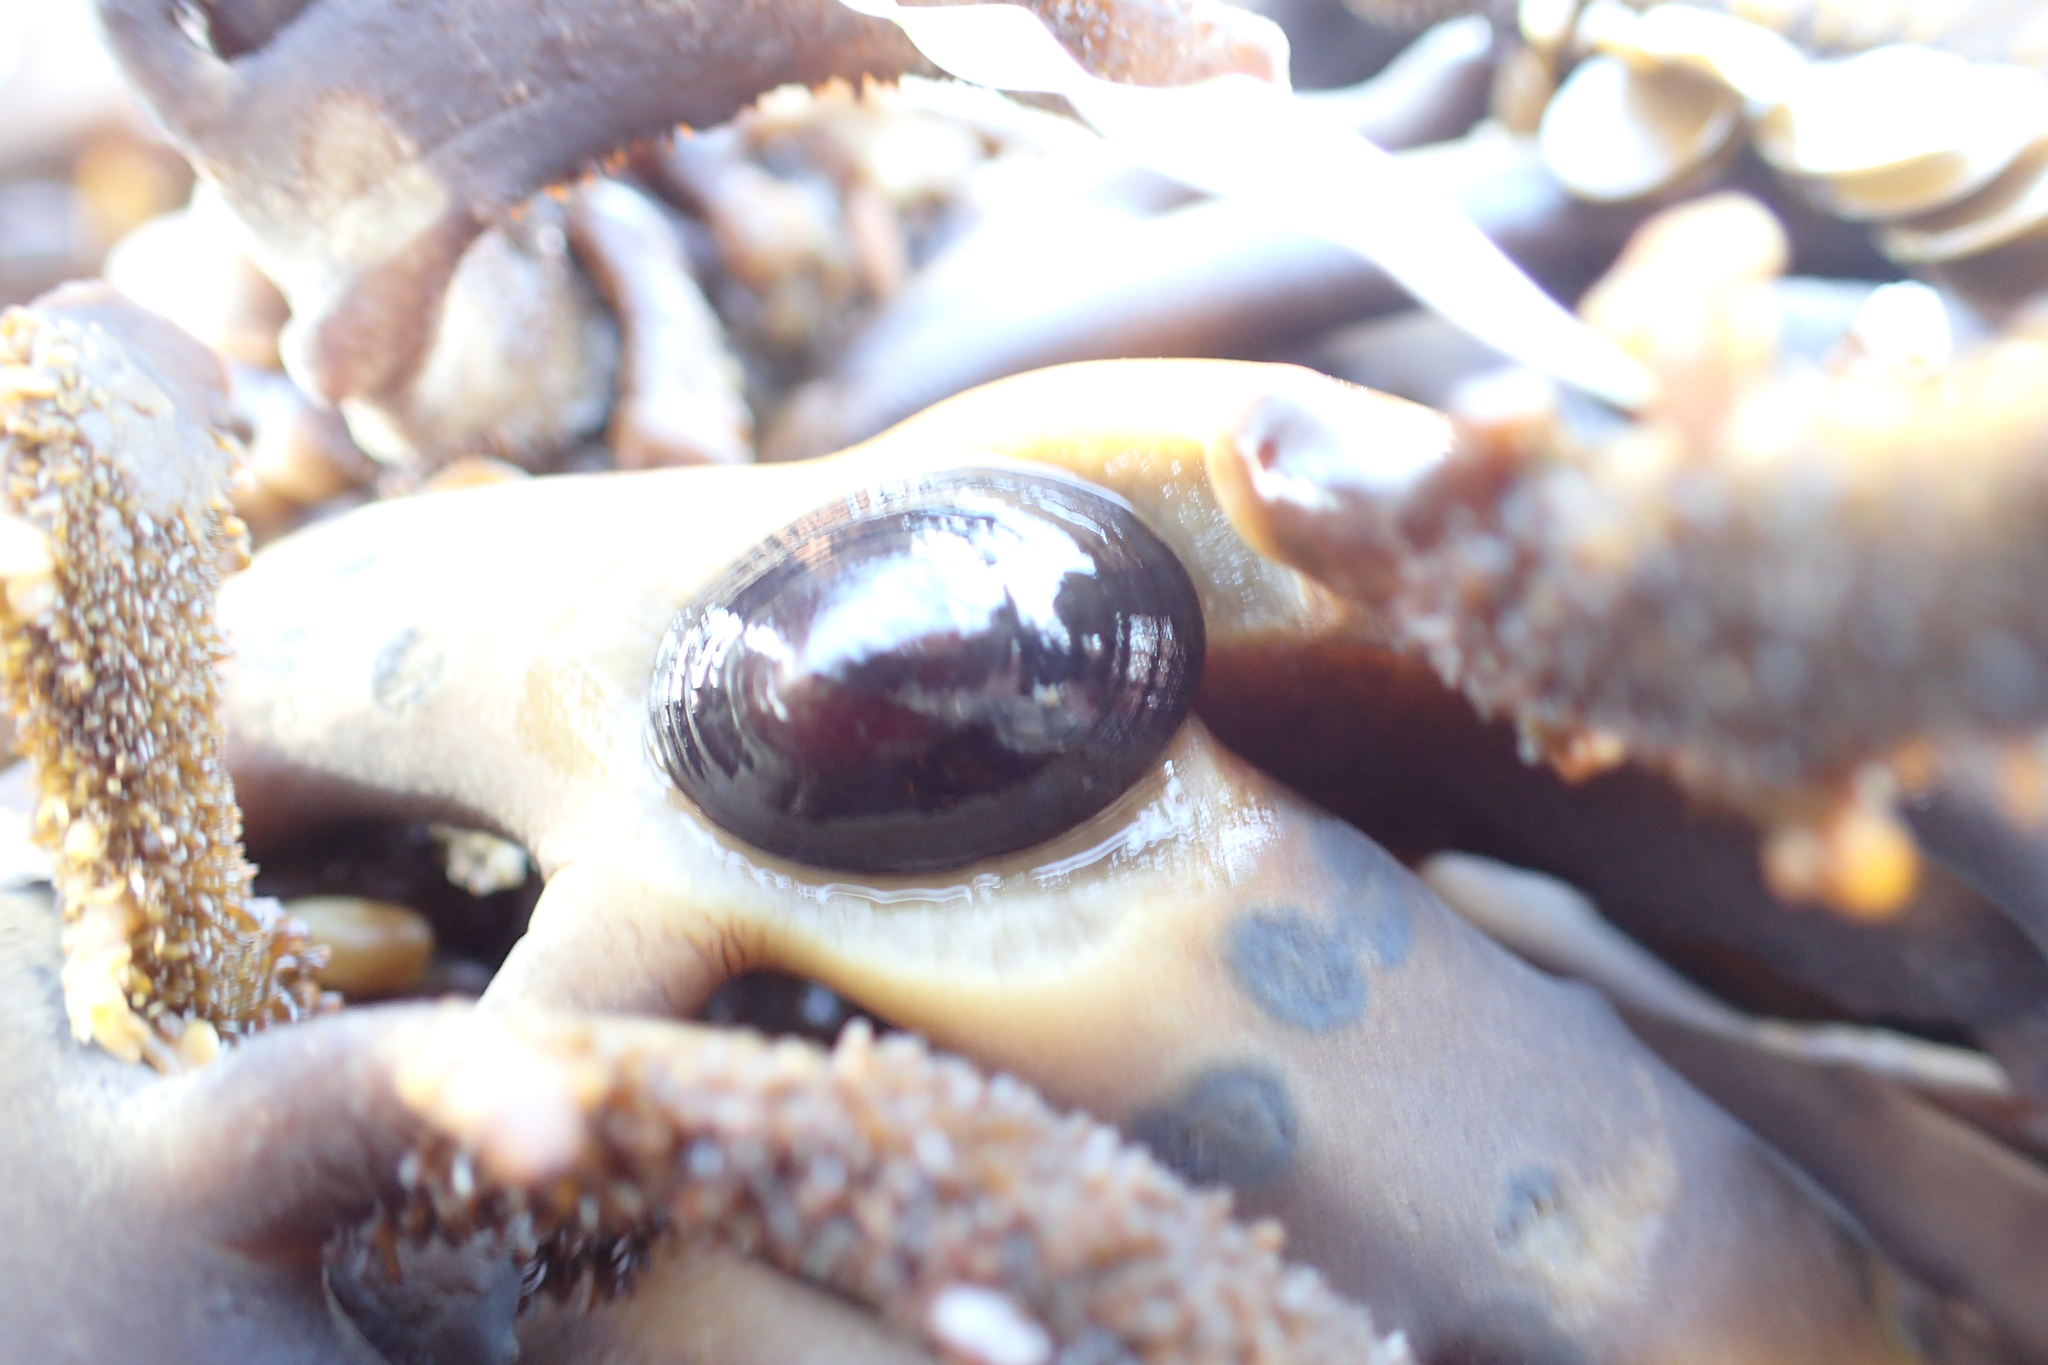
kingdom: Animalia
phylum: Mollusca
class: Gastropoda
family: Lottiidae
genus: Discurria
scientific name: Discurria insessa
